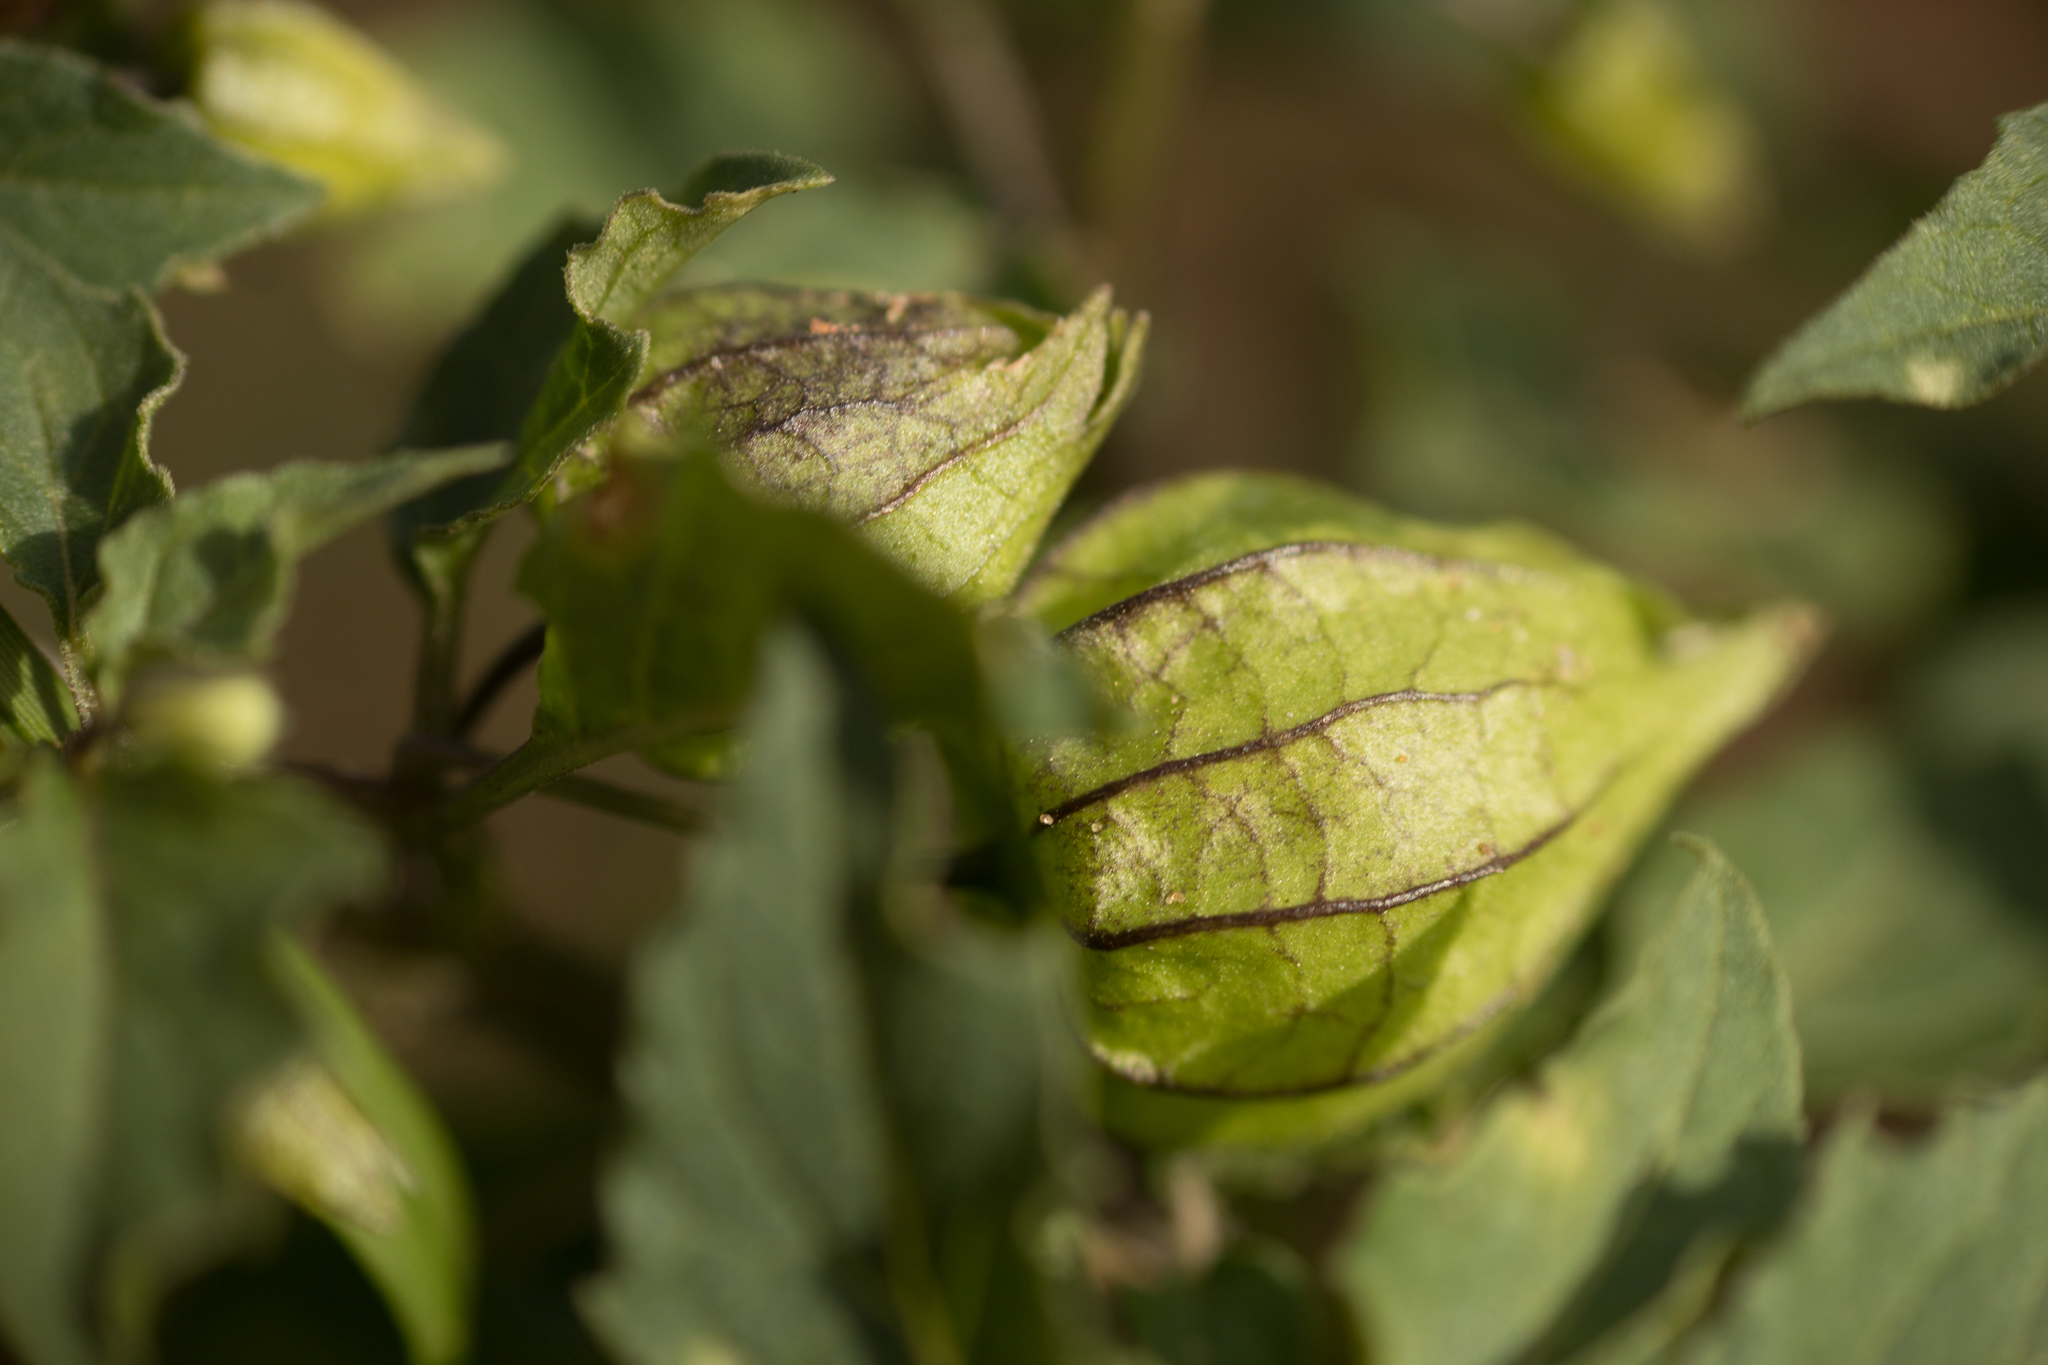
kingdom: Plantae
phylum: Tracheophyta
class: Magnoliopsida
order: Solanales
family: Solanaceae
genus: Physalis
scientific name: Physalis angulata
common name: Angular winter-cherry
